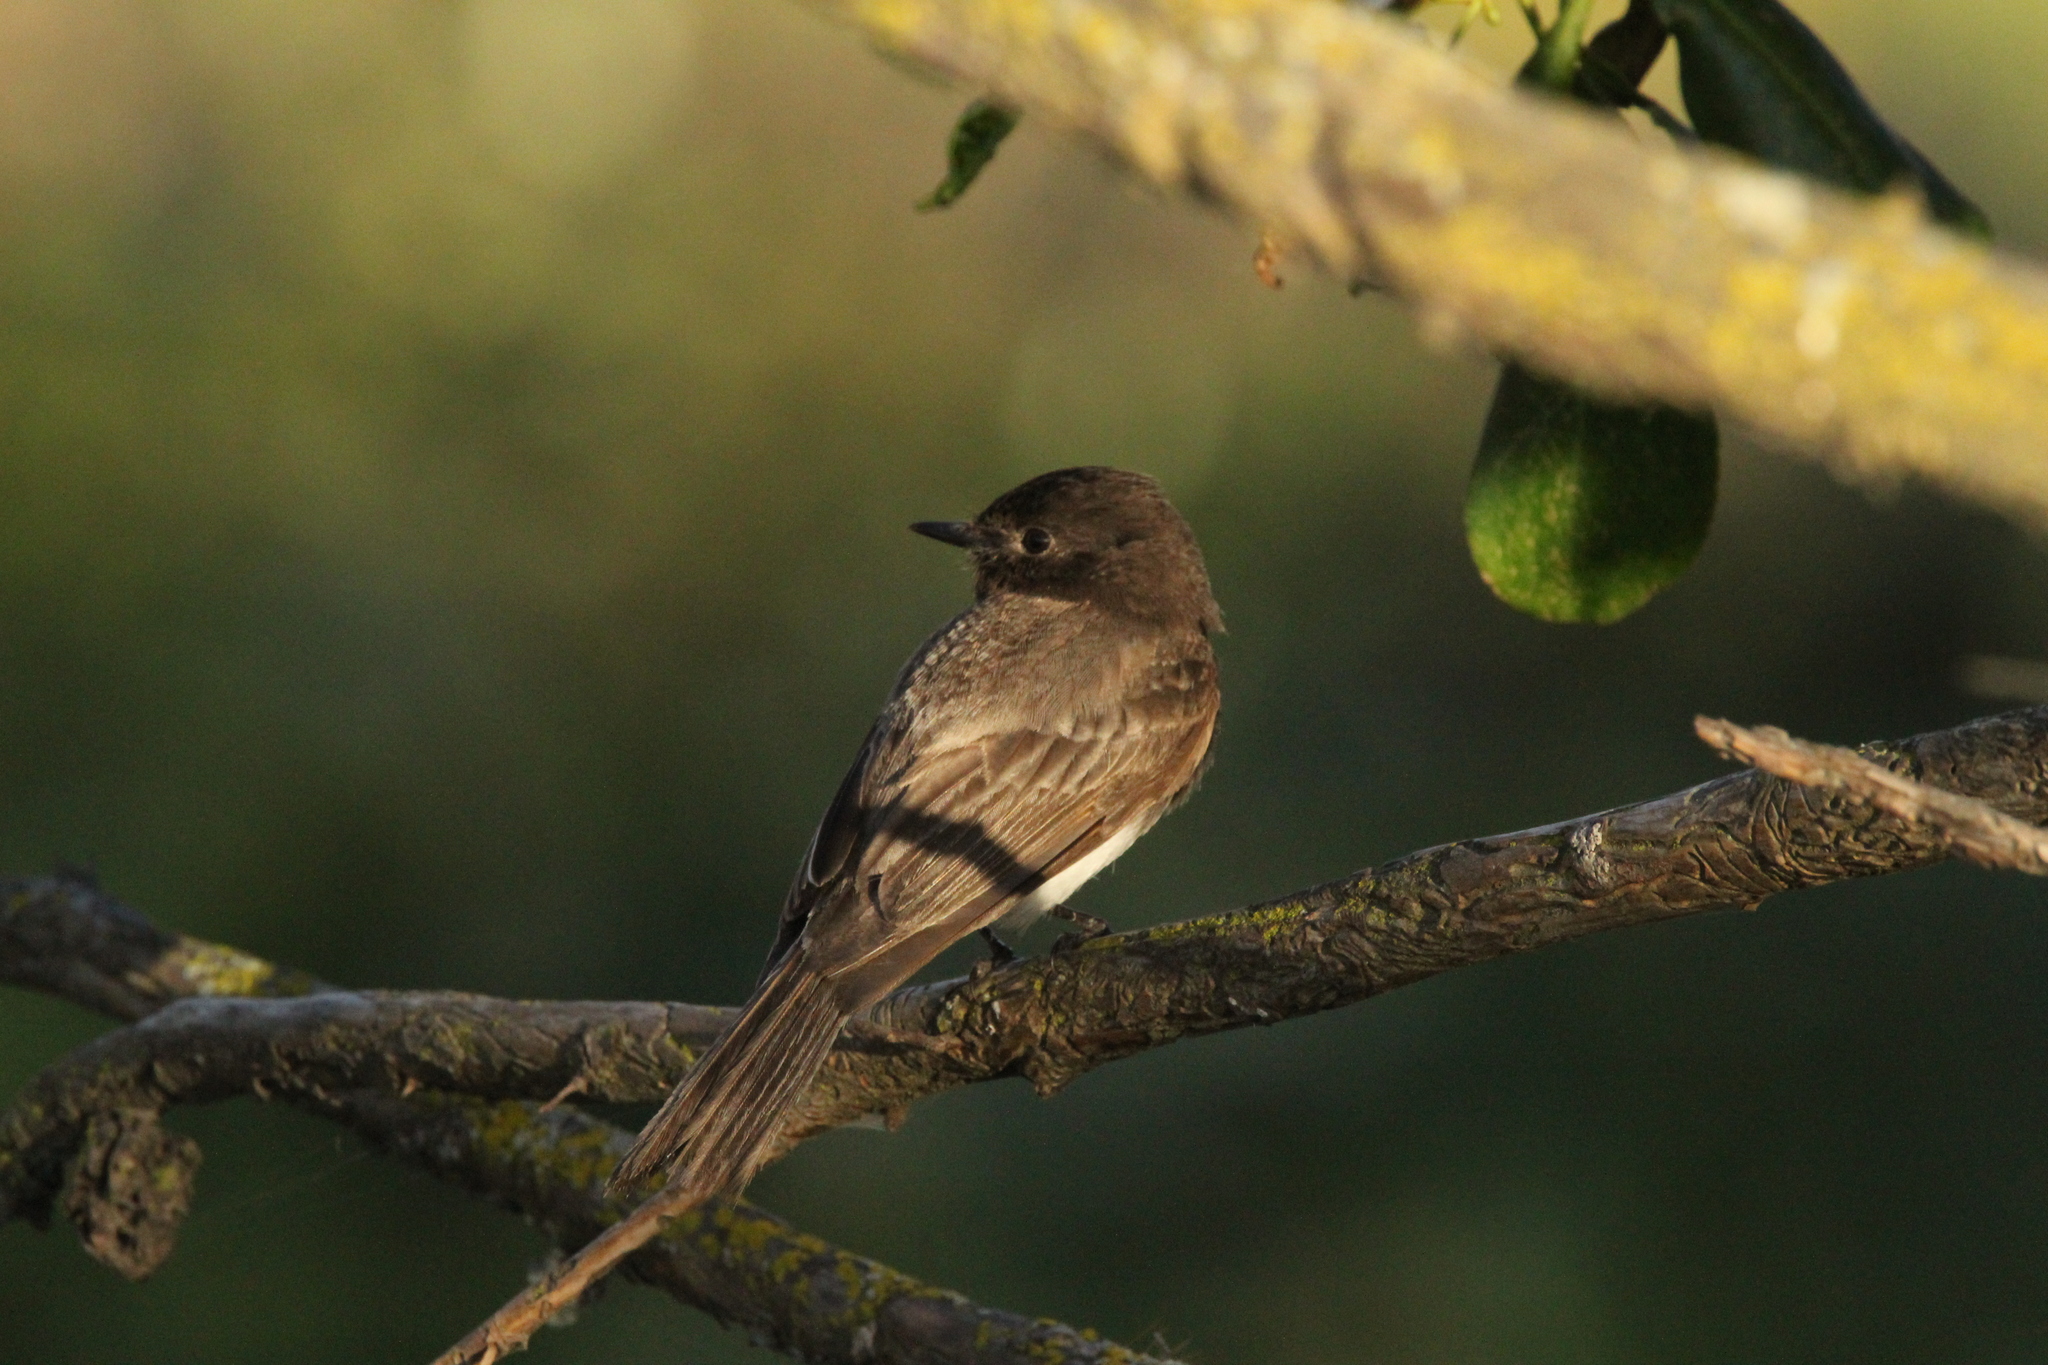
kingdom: Animalia
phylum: Chordata
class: Aves
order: Passeriformes
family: Tyrannidae
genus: Sayornis
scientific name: Sayornis nigricans
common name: Black phoebe
